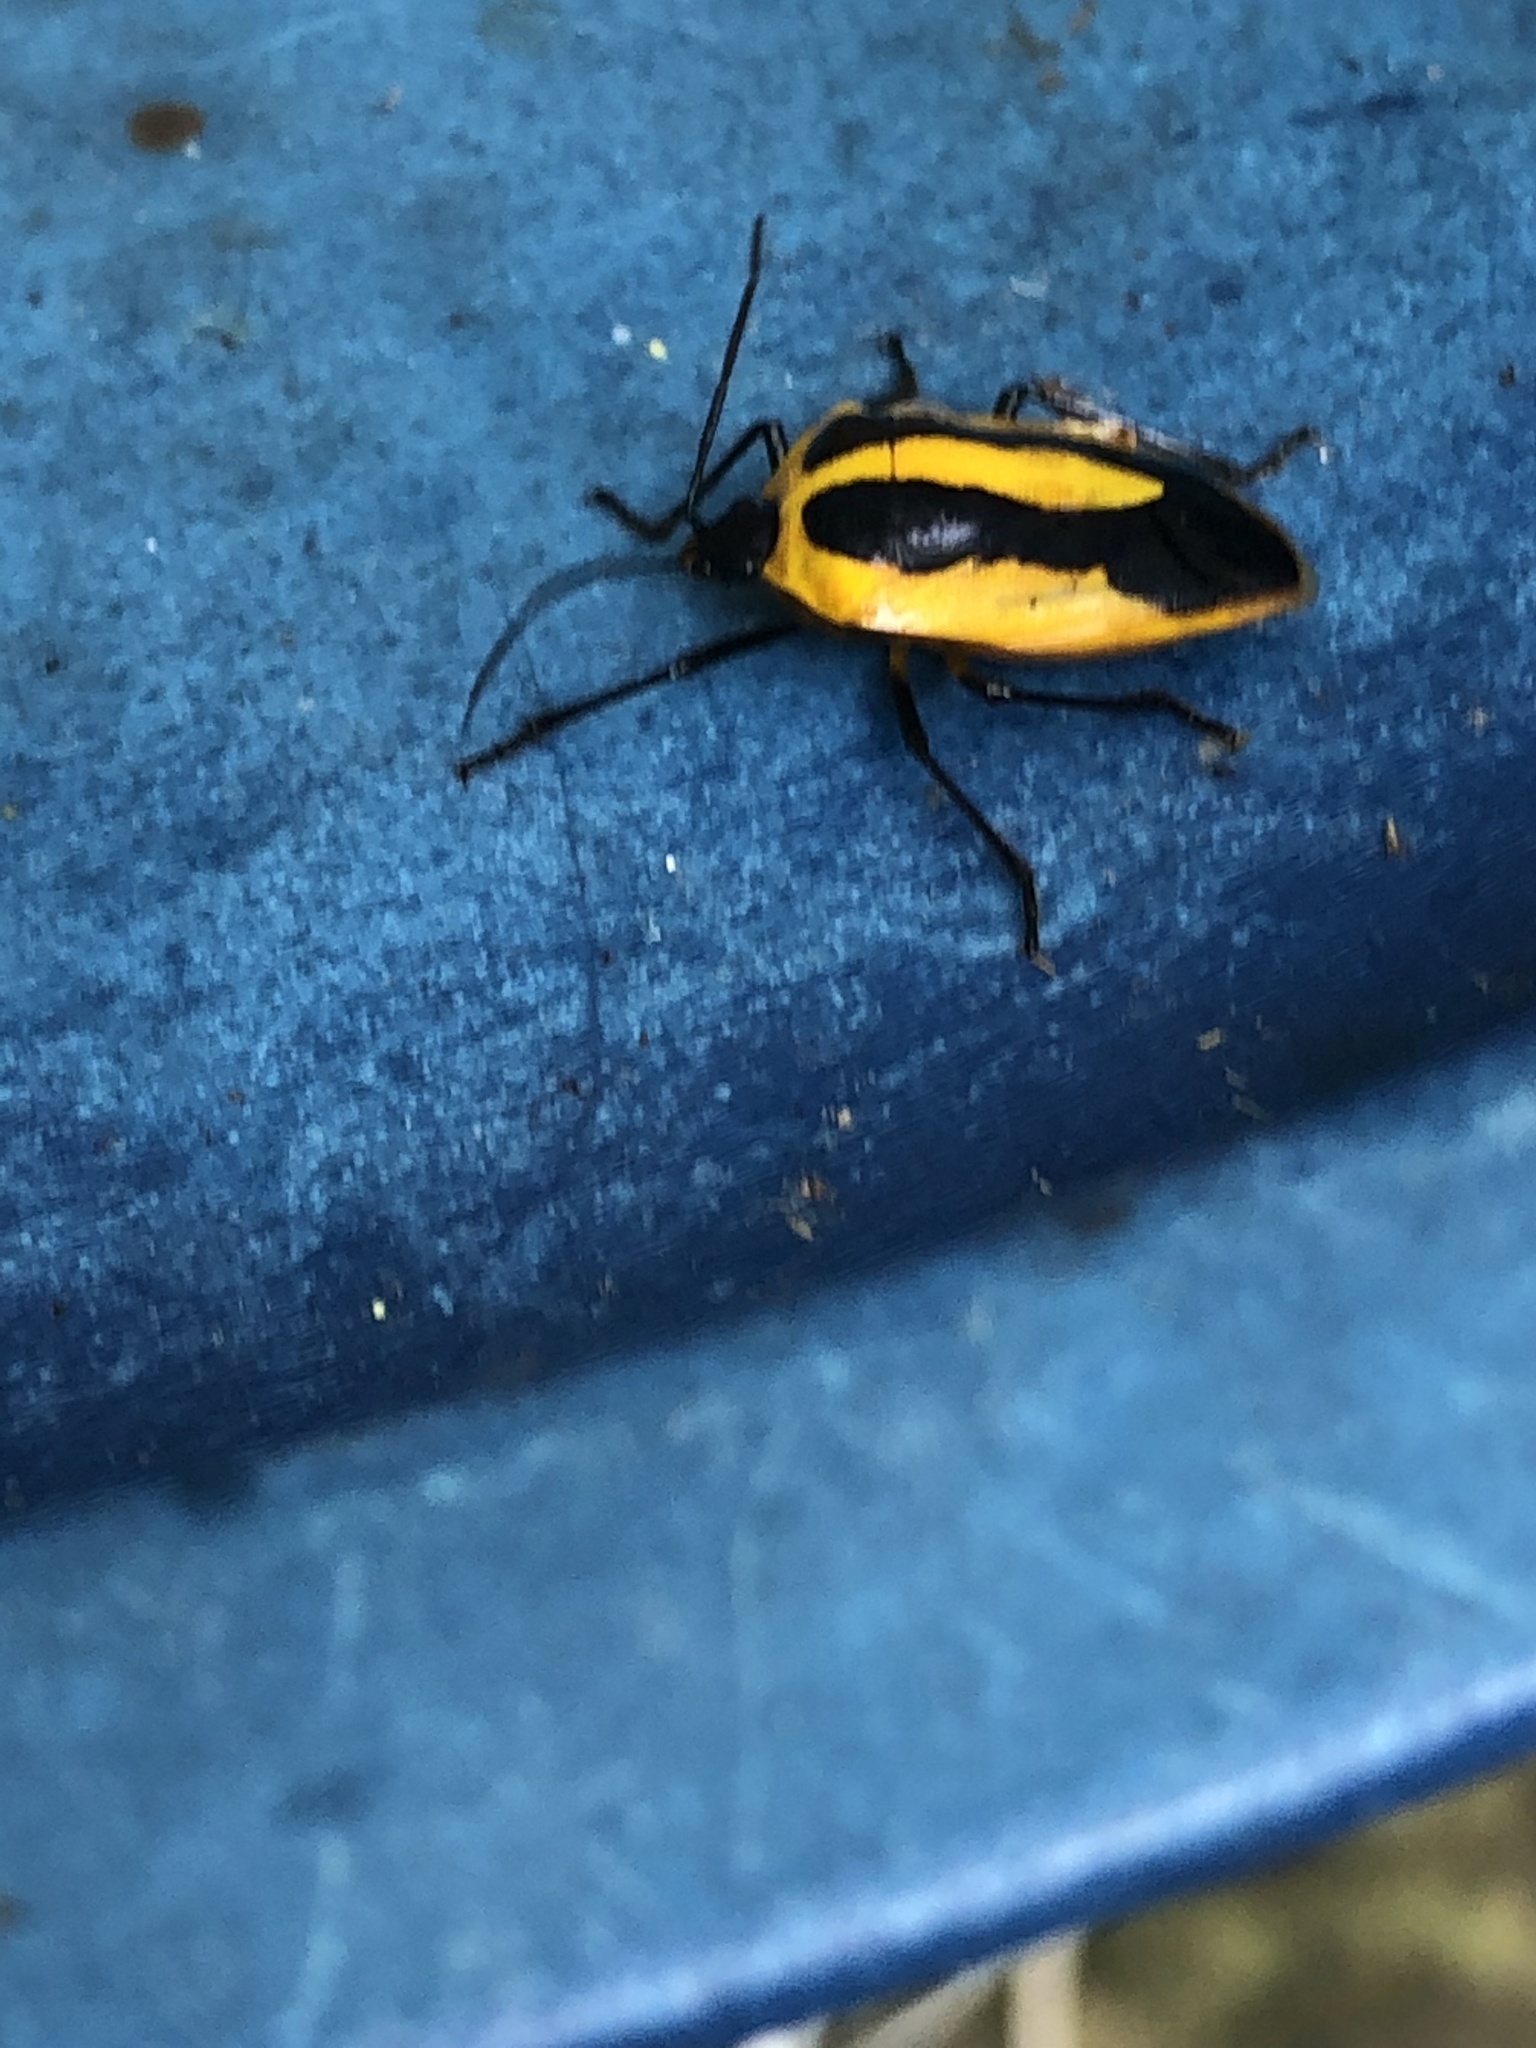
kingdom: Animalia
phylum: Arthropoda
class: Insecta
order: Hemiptera
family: Pentatomidae
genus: Arocera
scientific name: Arocera aequinoxialis
